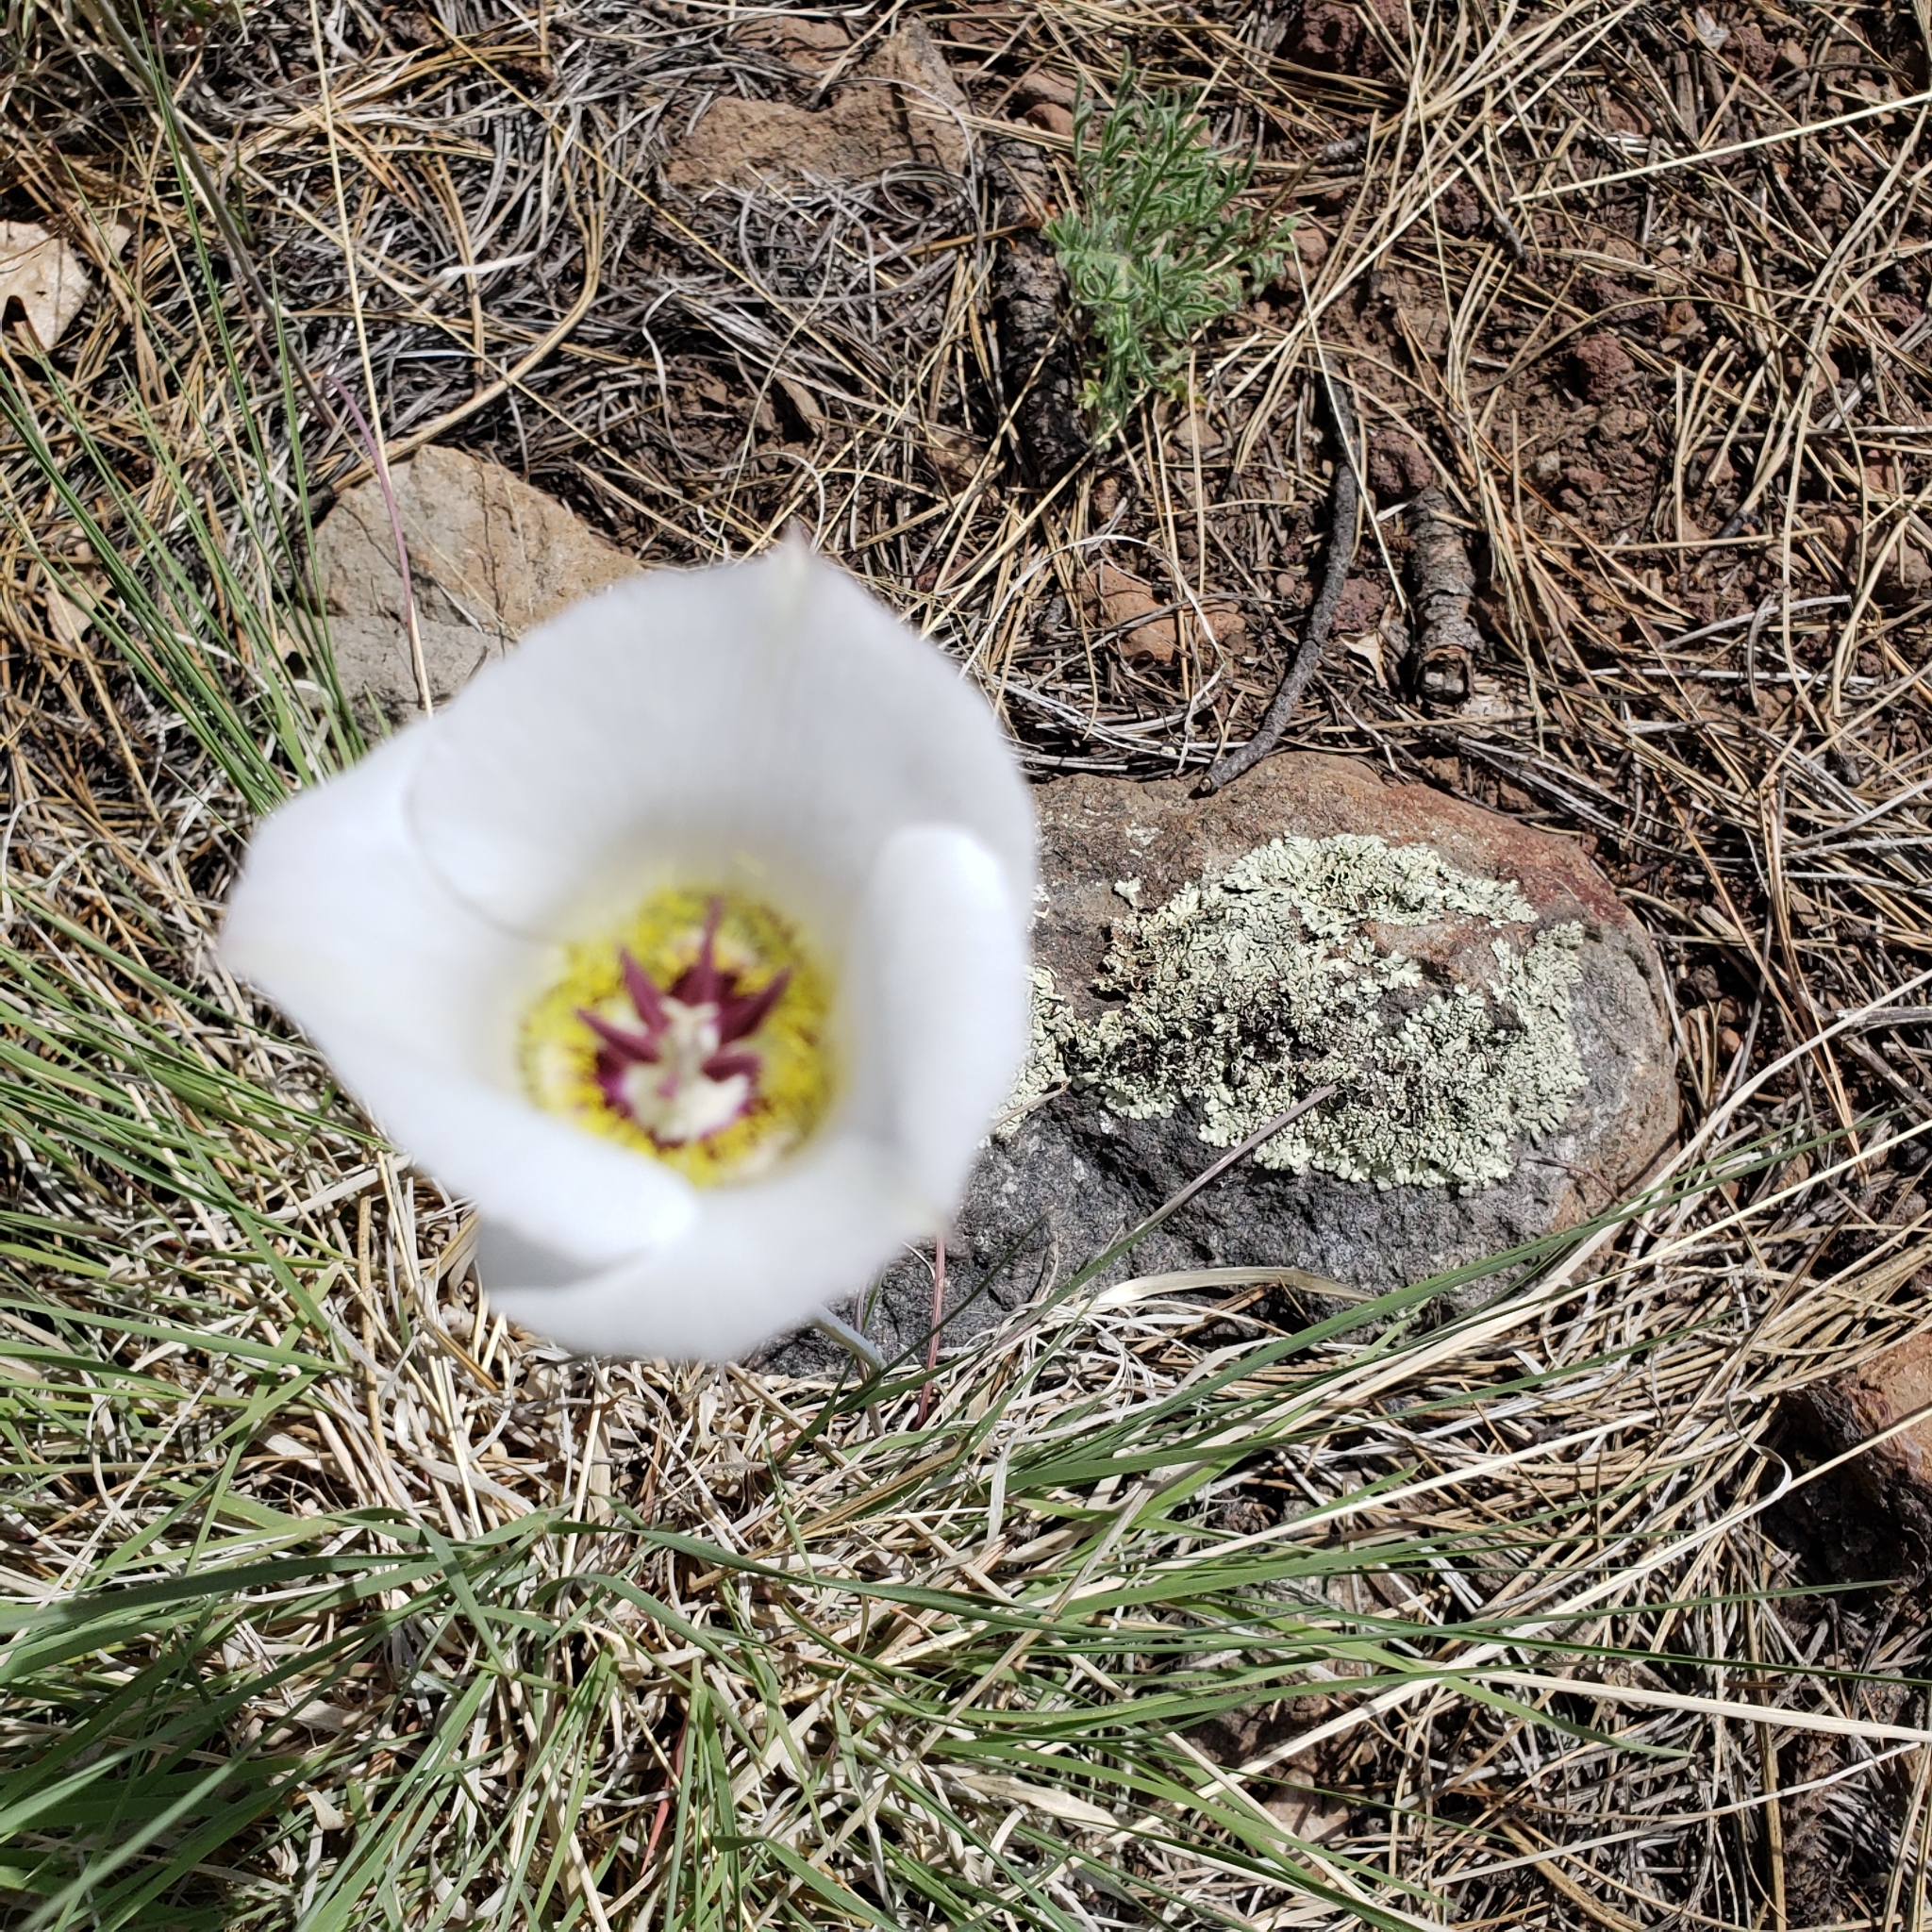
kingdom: Plantae
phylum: Tracheophyta
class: Liliopsida
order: Liliales
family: Liliaceae
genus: Calochortus
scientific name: Calochortus ambiguus
